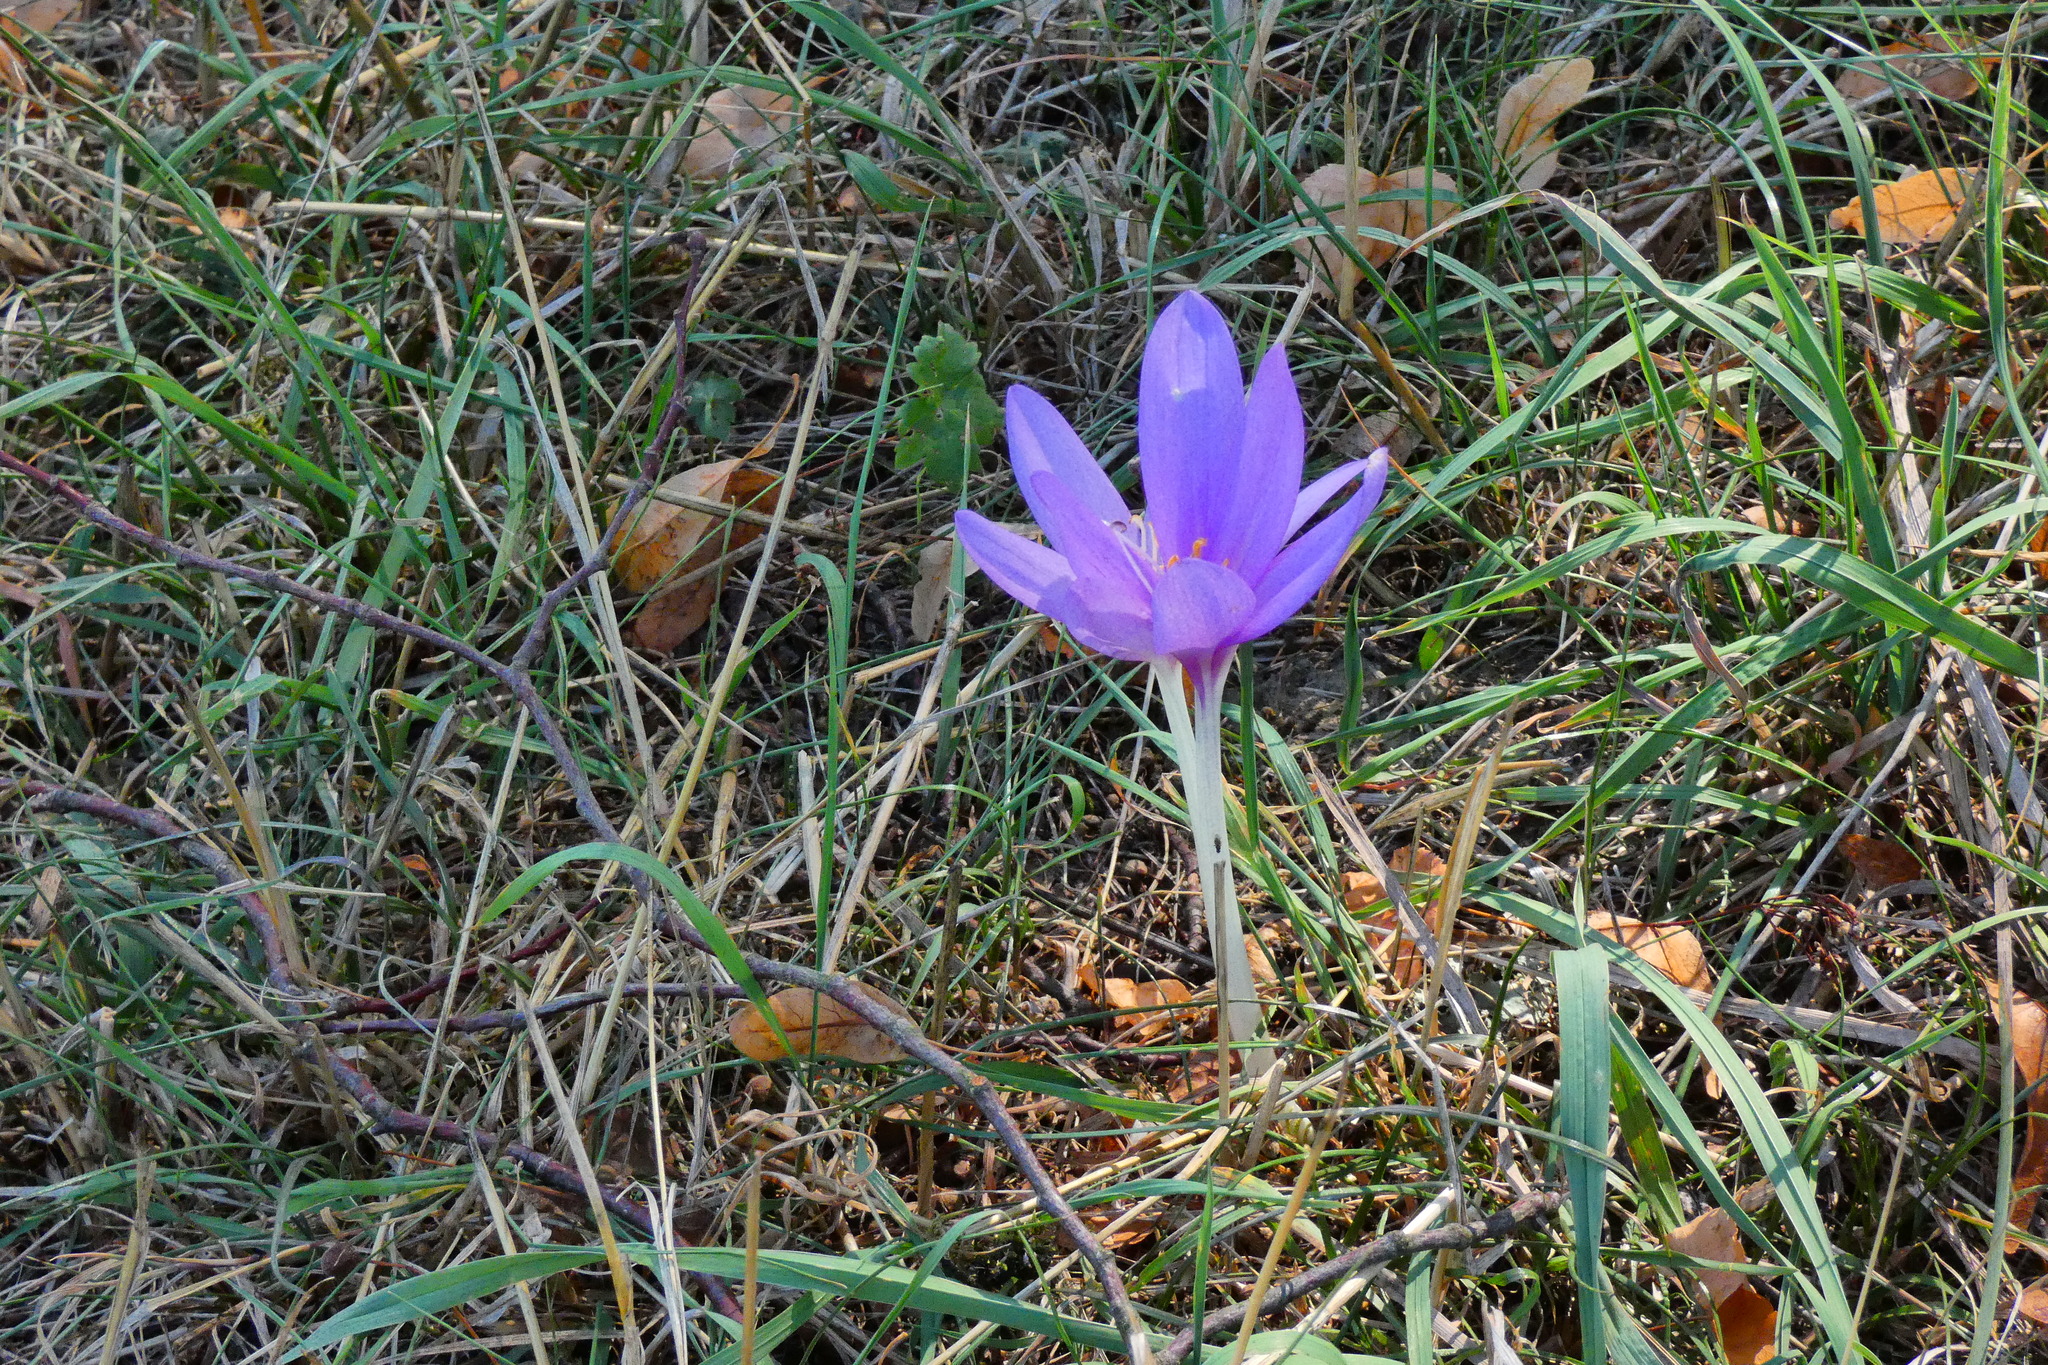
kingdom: Plantae
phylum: Tracheophyta
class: Liliopsida
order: Liliales
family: Colchicaceae
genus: Colchicum
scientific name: Colchicum autumnale
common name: Autumn crocus
